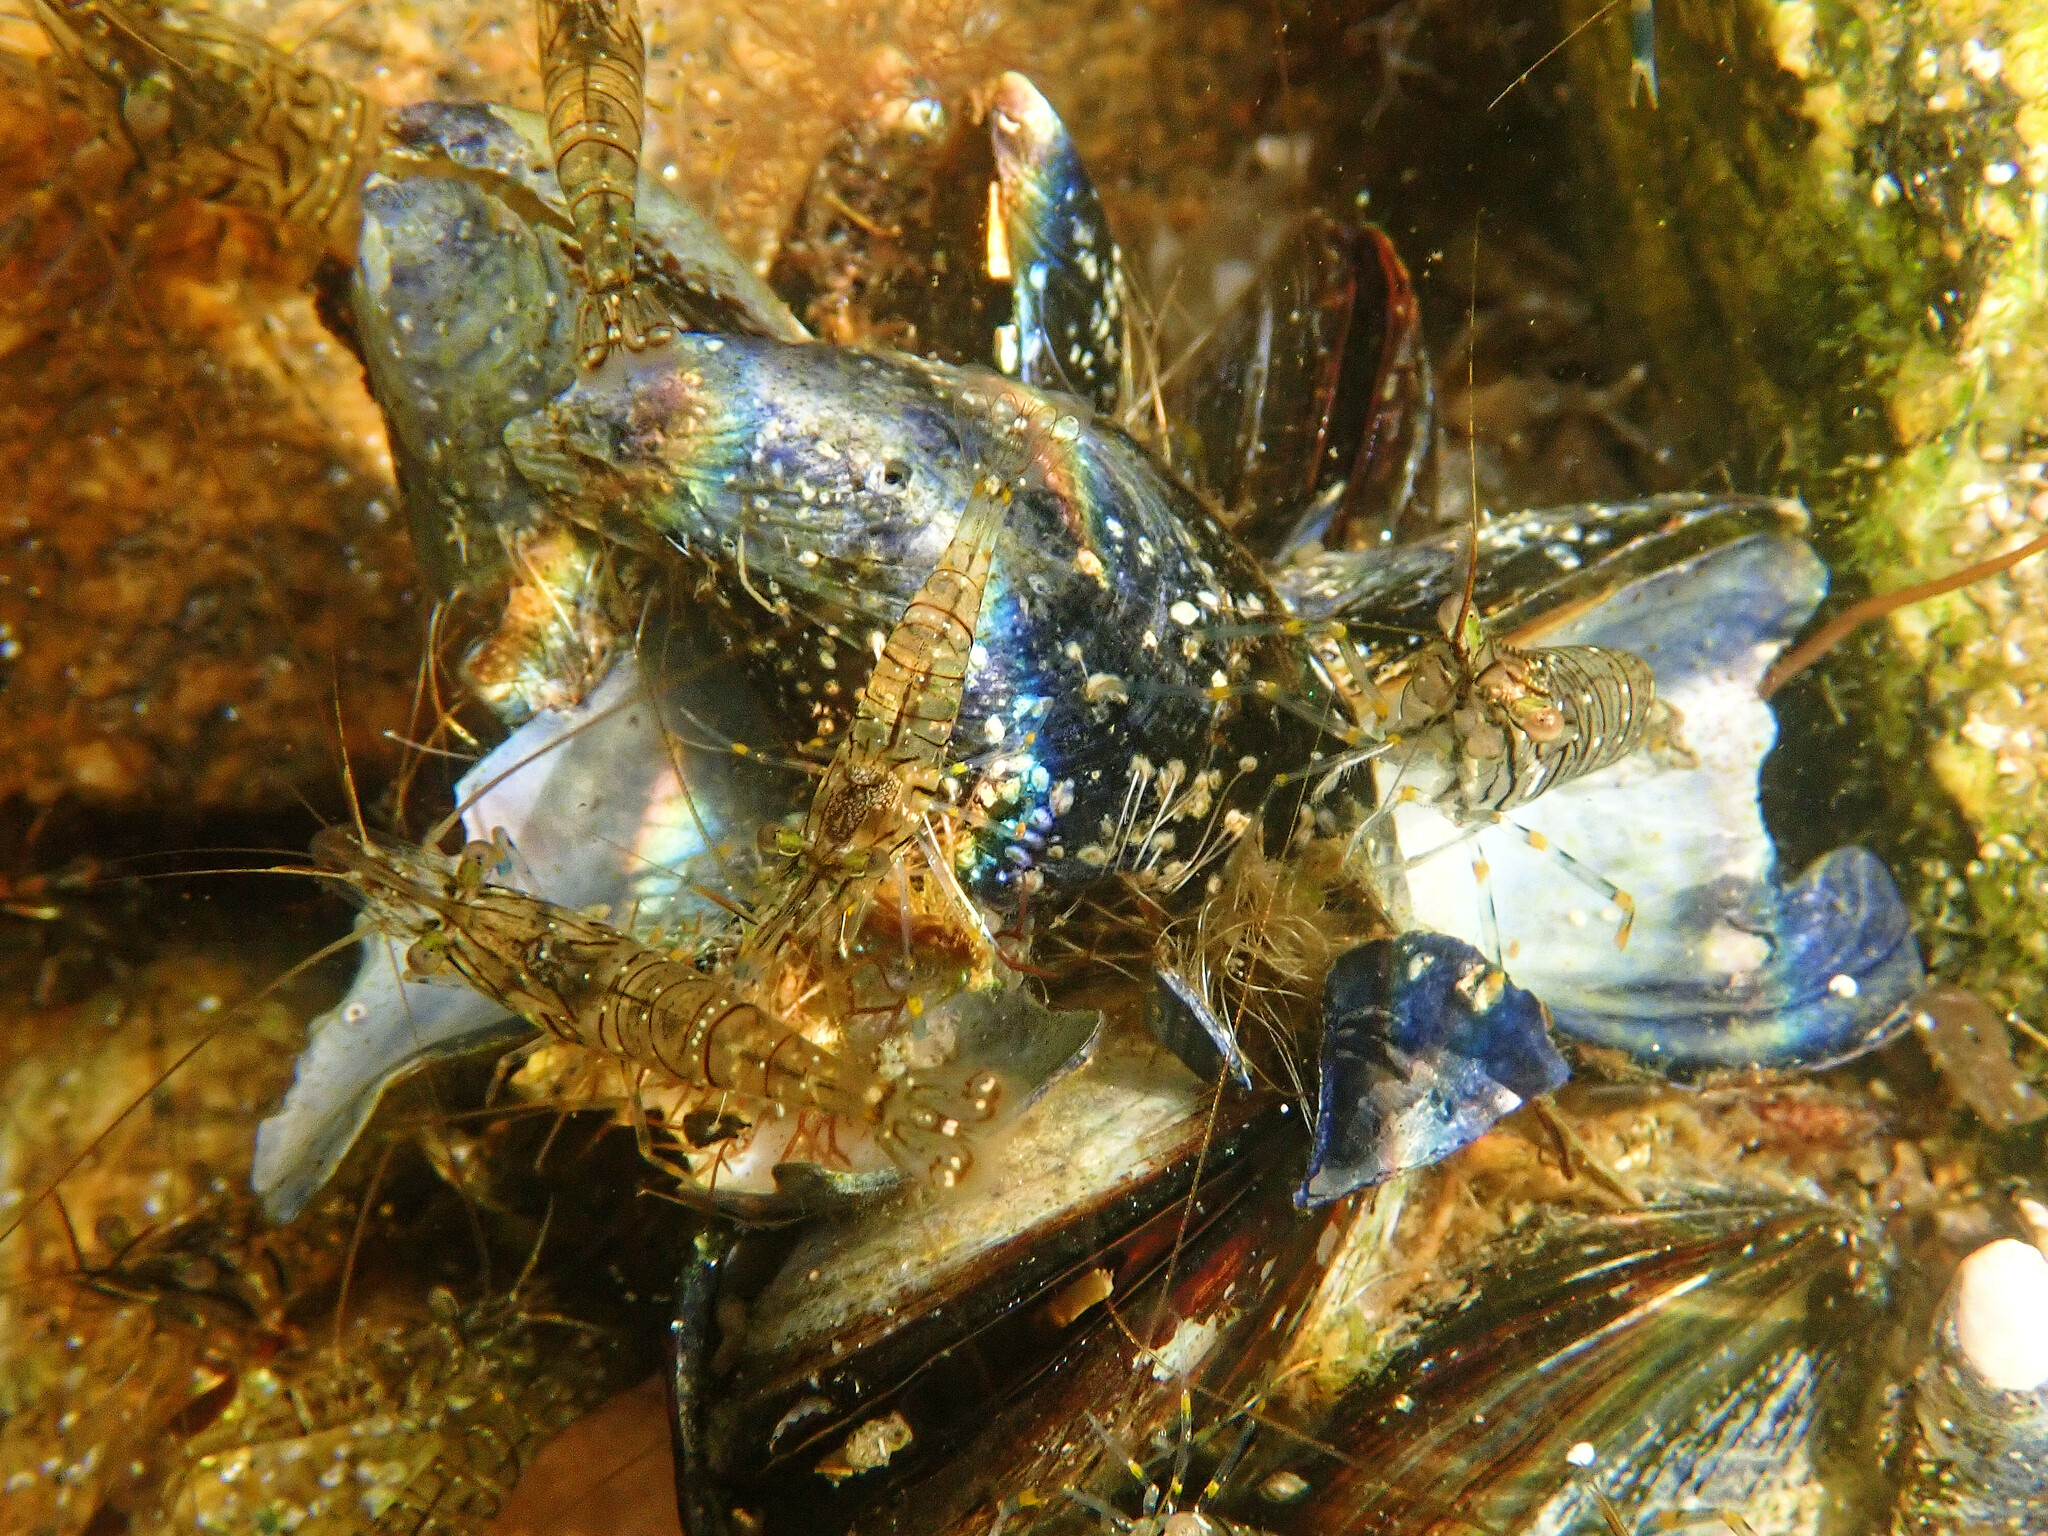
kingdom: Animalia
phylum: Arthropoda
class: Malacostraca
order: Decapoda
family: Palaemonidae
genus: Palaemon
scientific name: Palaemon elegans
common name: Grass prawm
